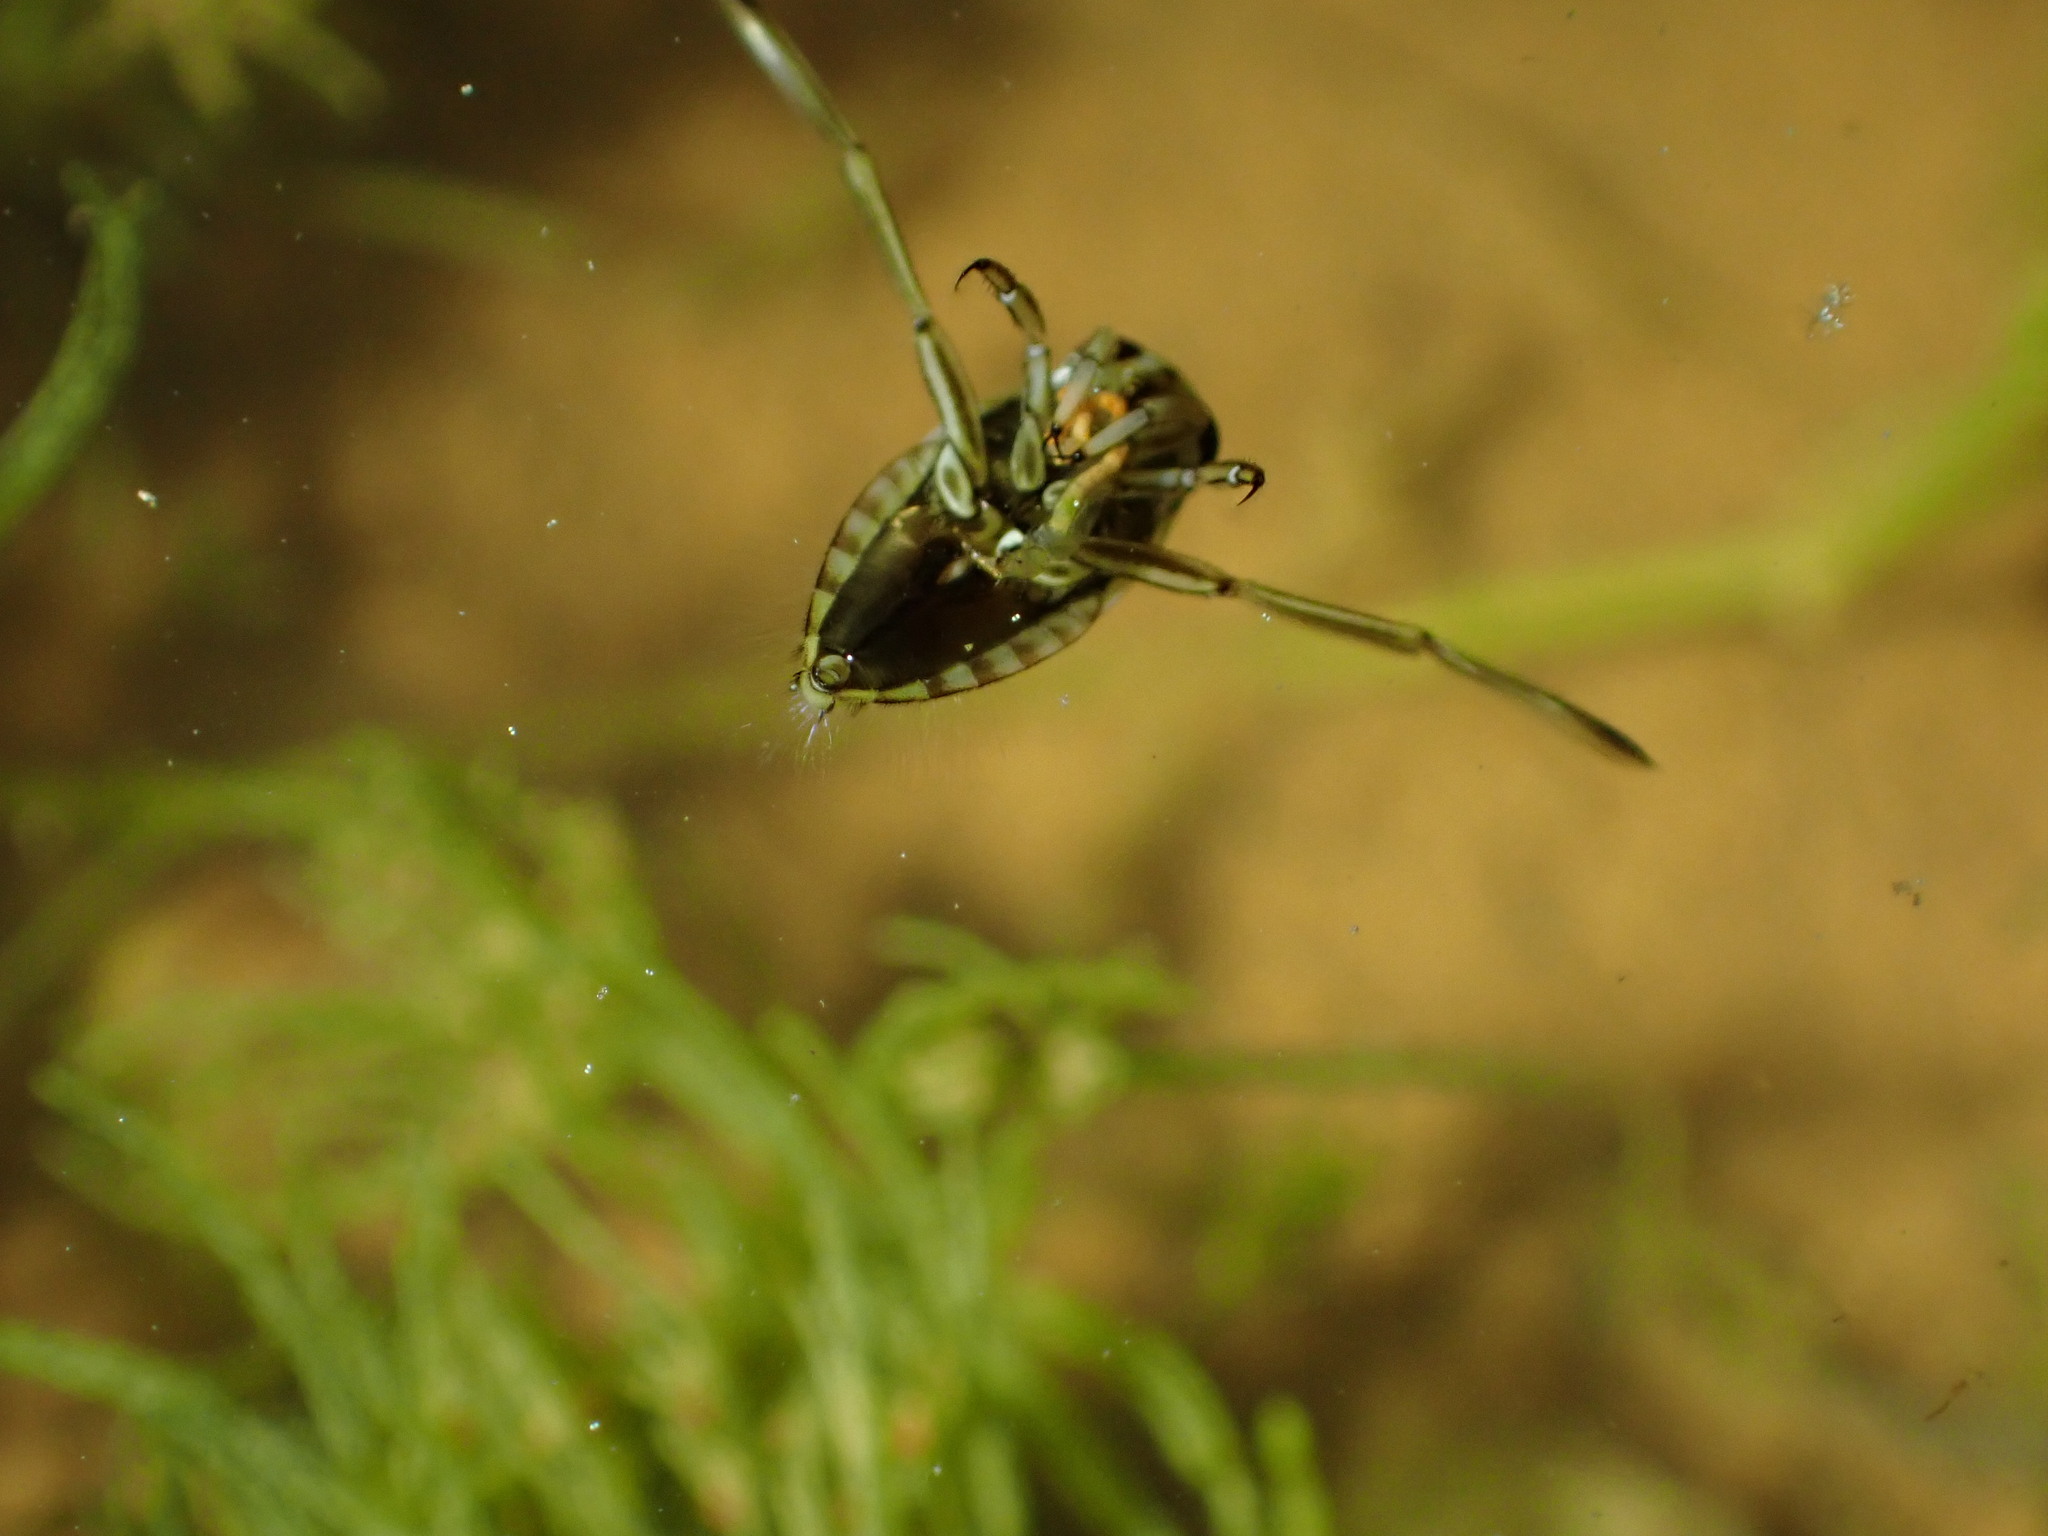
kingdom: Animalia
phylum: Arthropoda
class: Insecta
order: Hemiptera
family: Notonectidae
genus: Notonecta
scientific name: Notonecta
